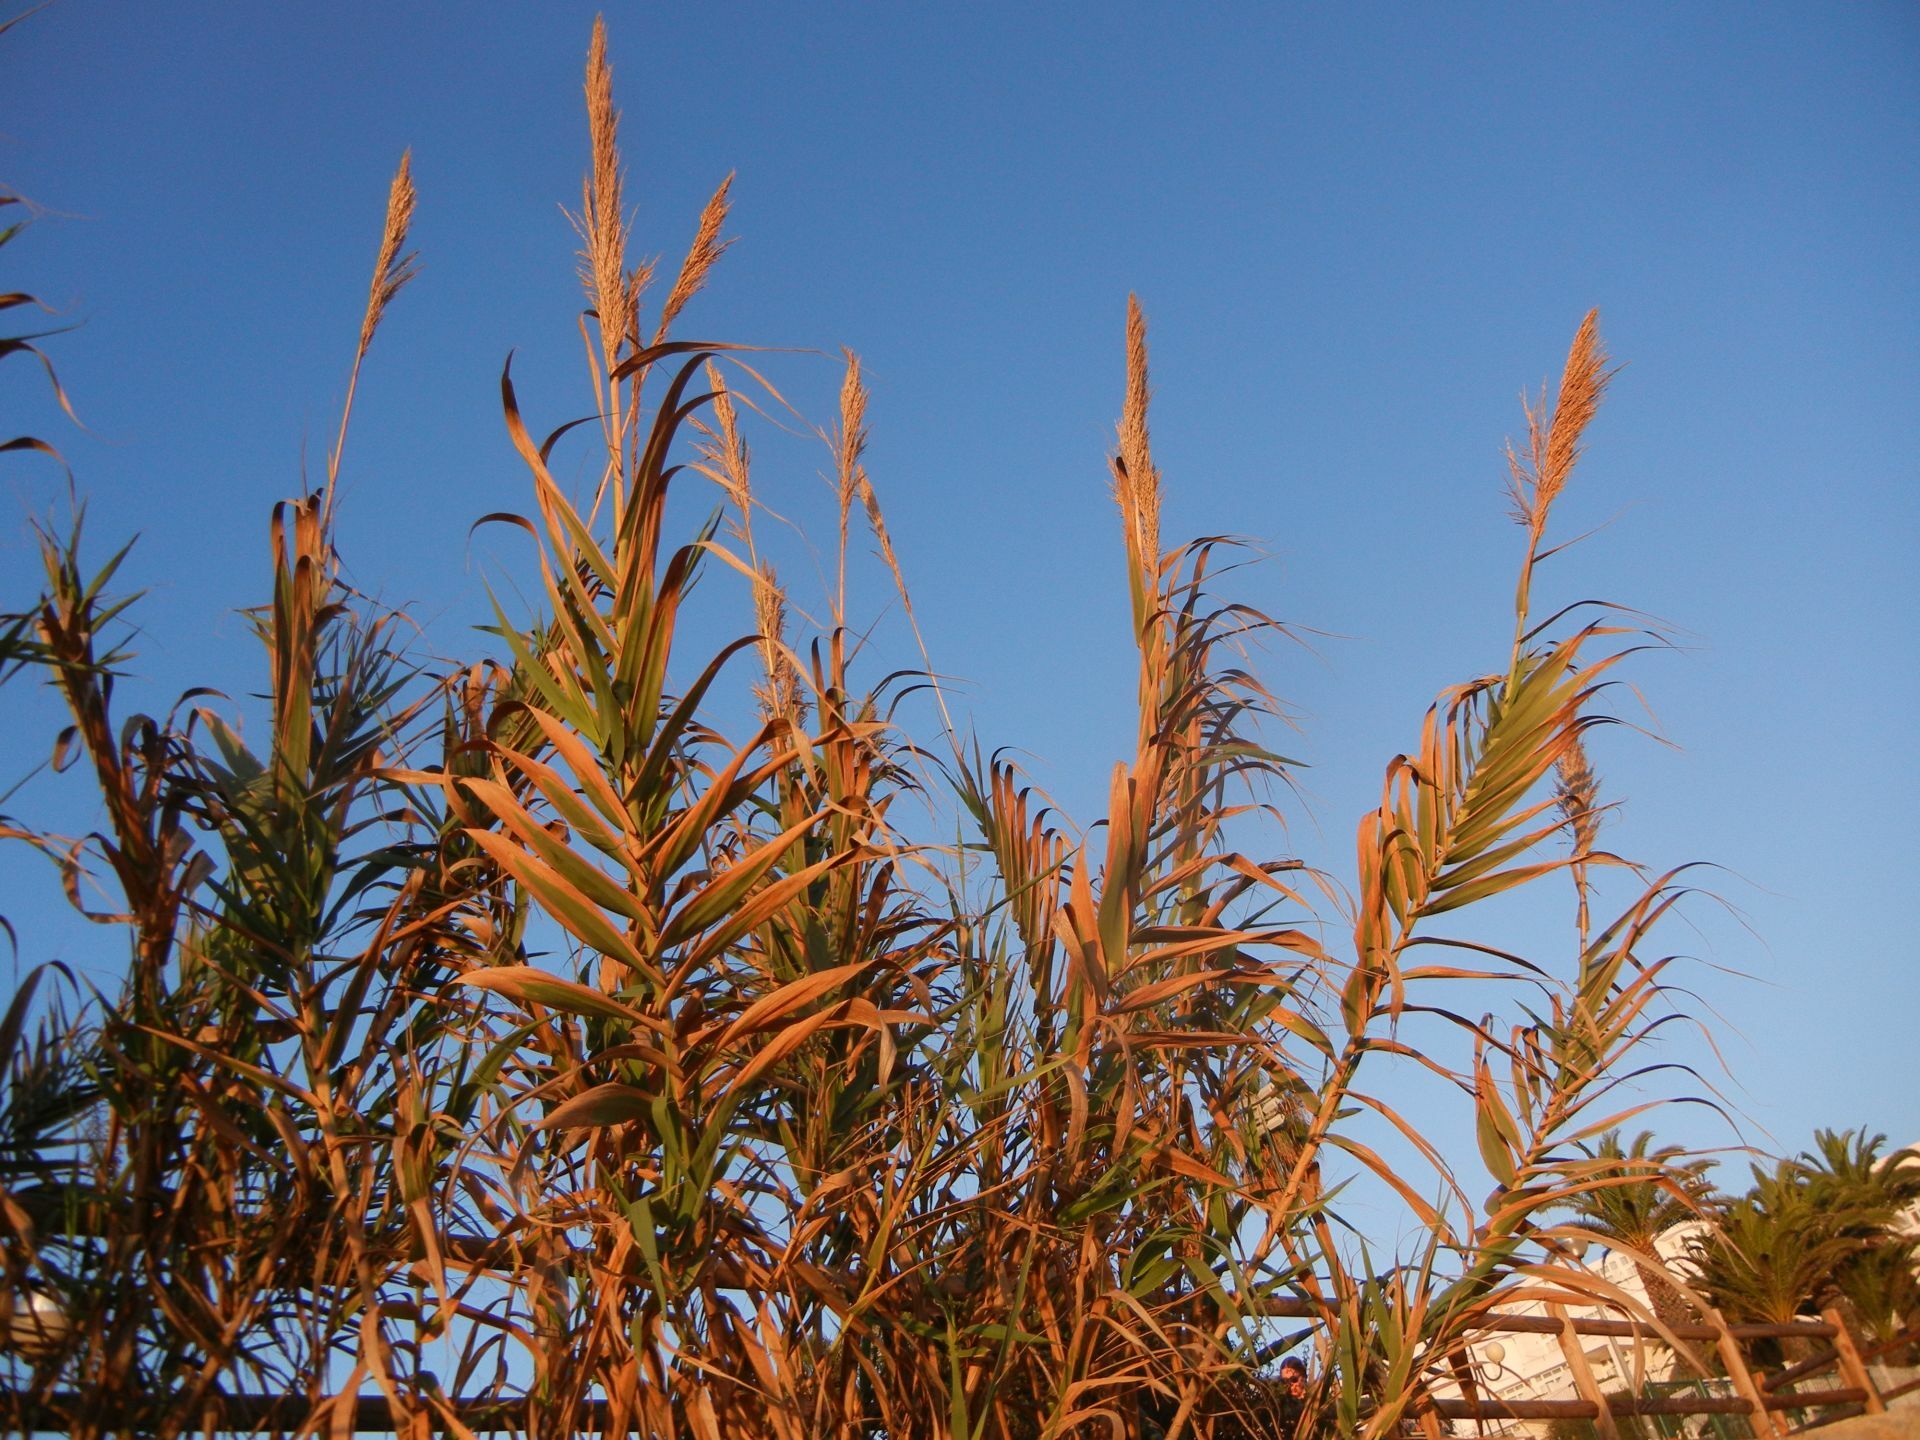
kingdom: Plantae
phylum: Tracheophyta
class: Liliopsida
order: Poales
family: Poaceae
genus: Arundo
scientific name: Arundo donax
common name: Giant reed
